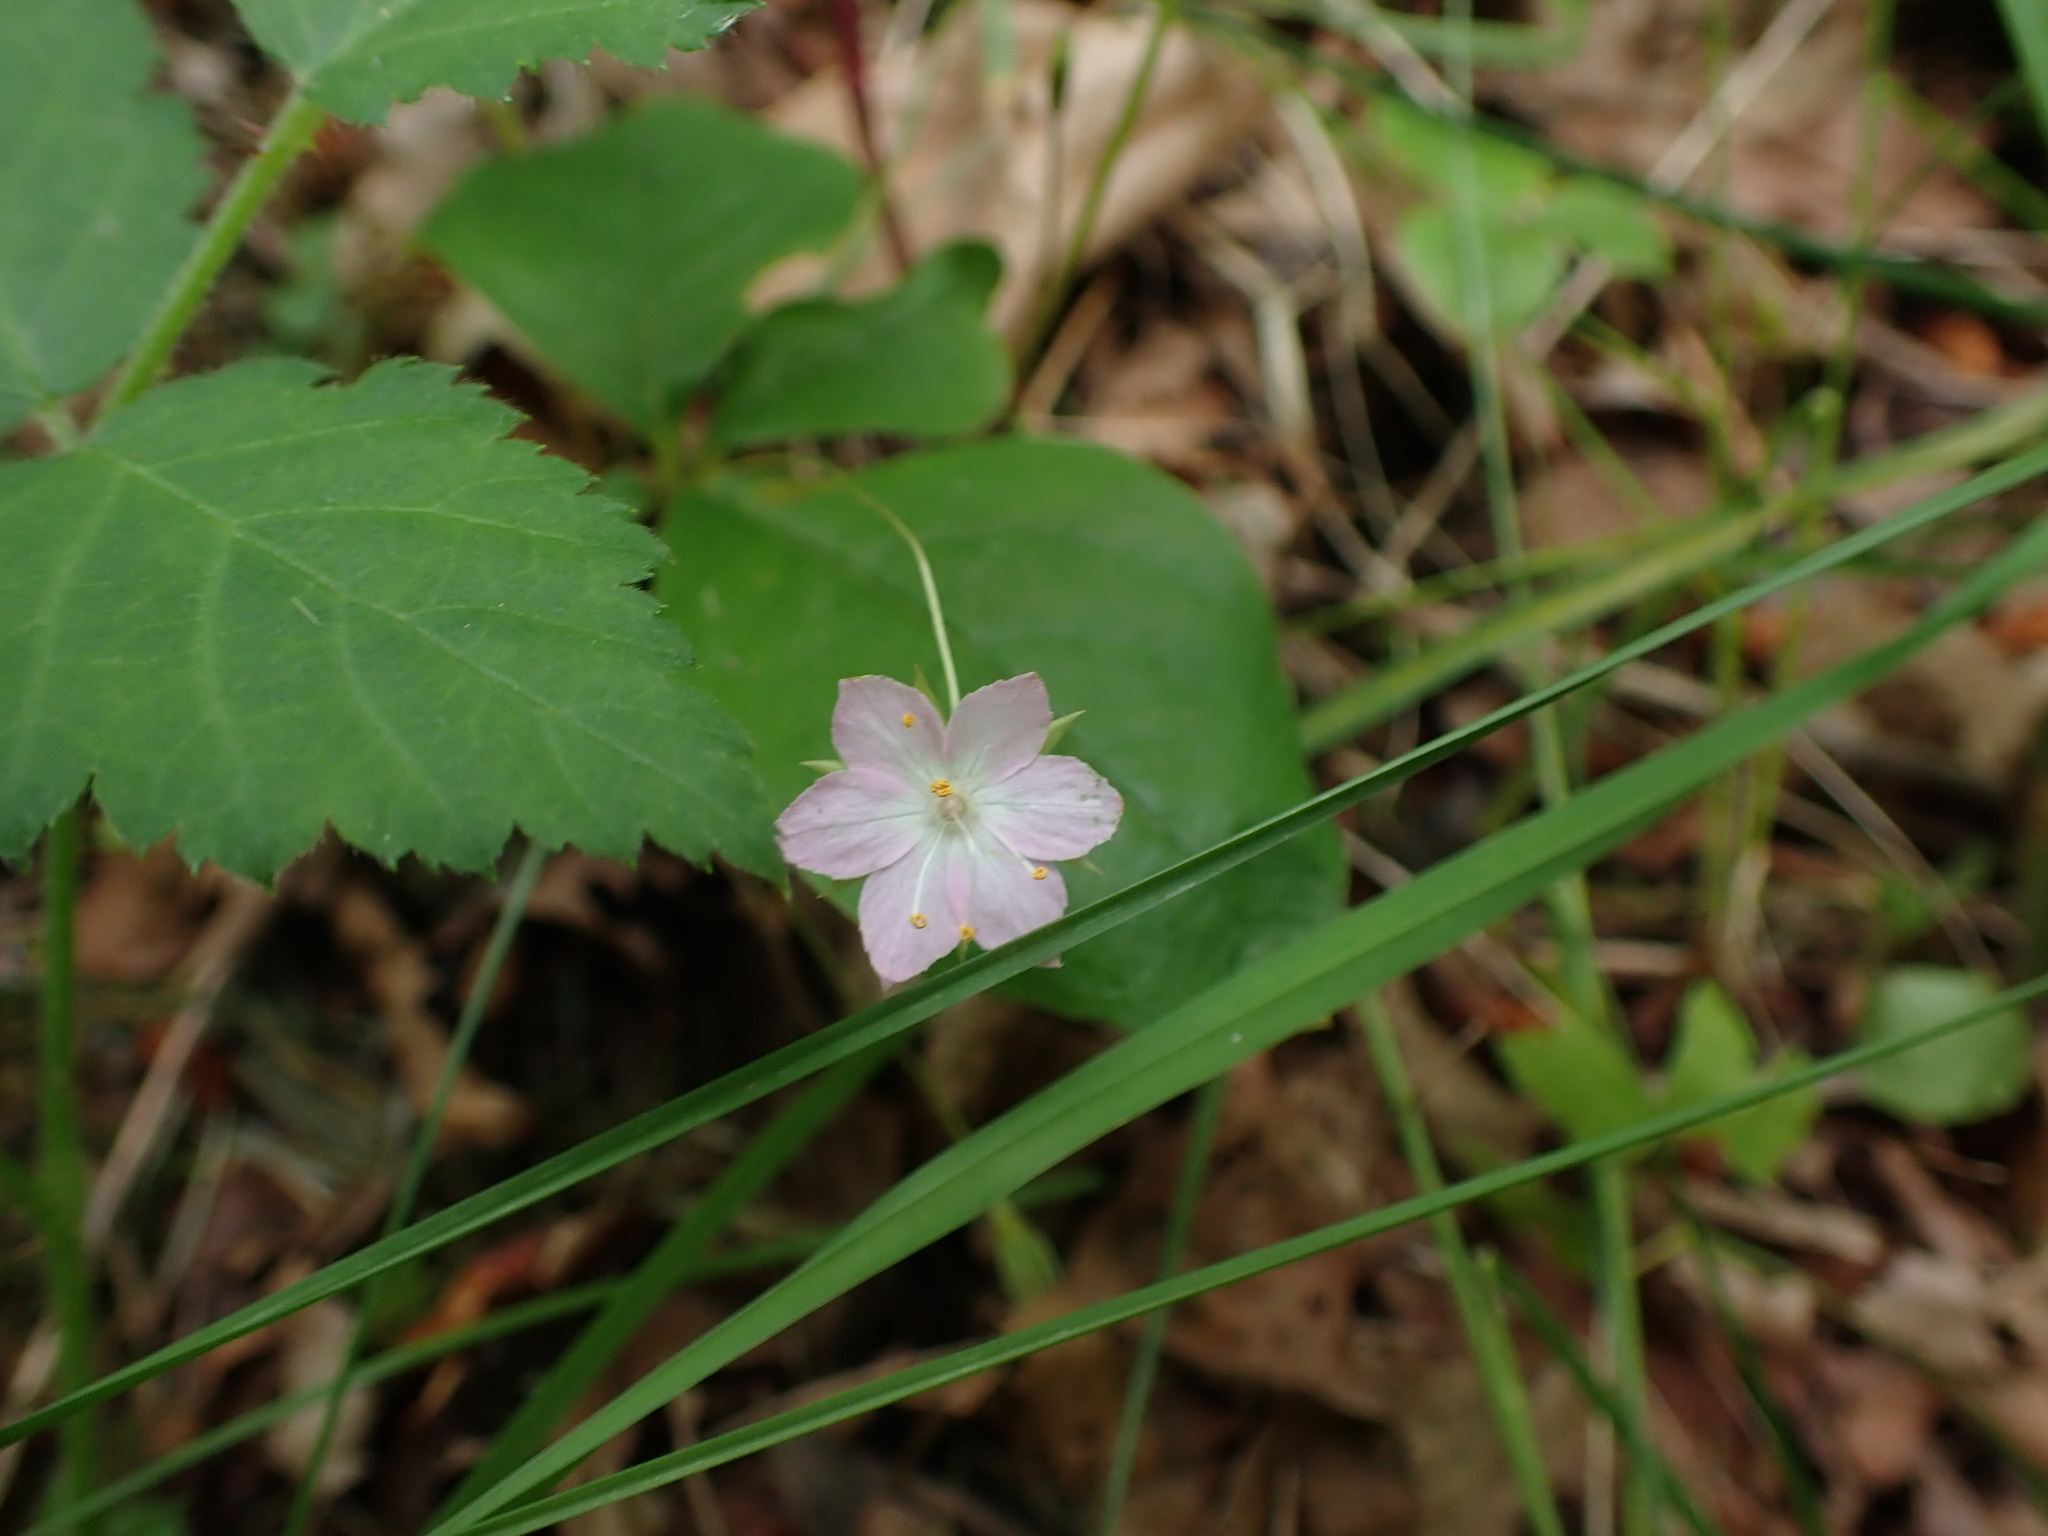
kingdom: Plantae
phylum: Tracheophyta
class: Magnoliopsida
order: Ericales
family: Primulaceae
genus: Lysimachia
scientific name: Lysimachia latifolia
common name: Pacific starflower
